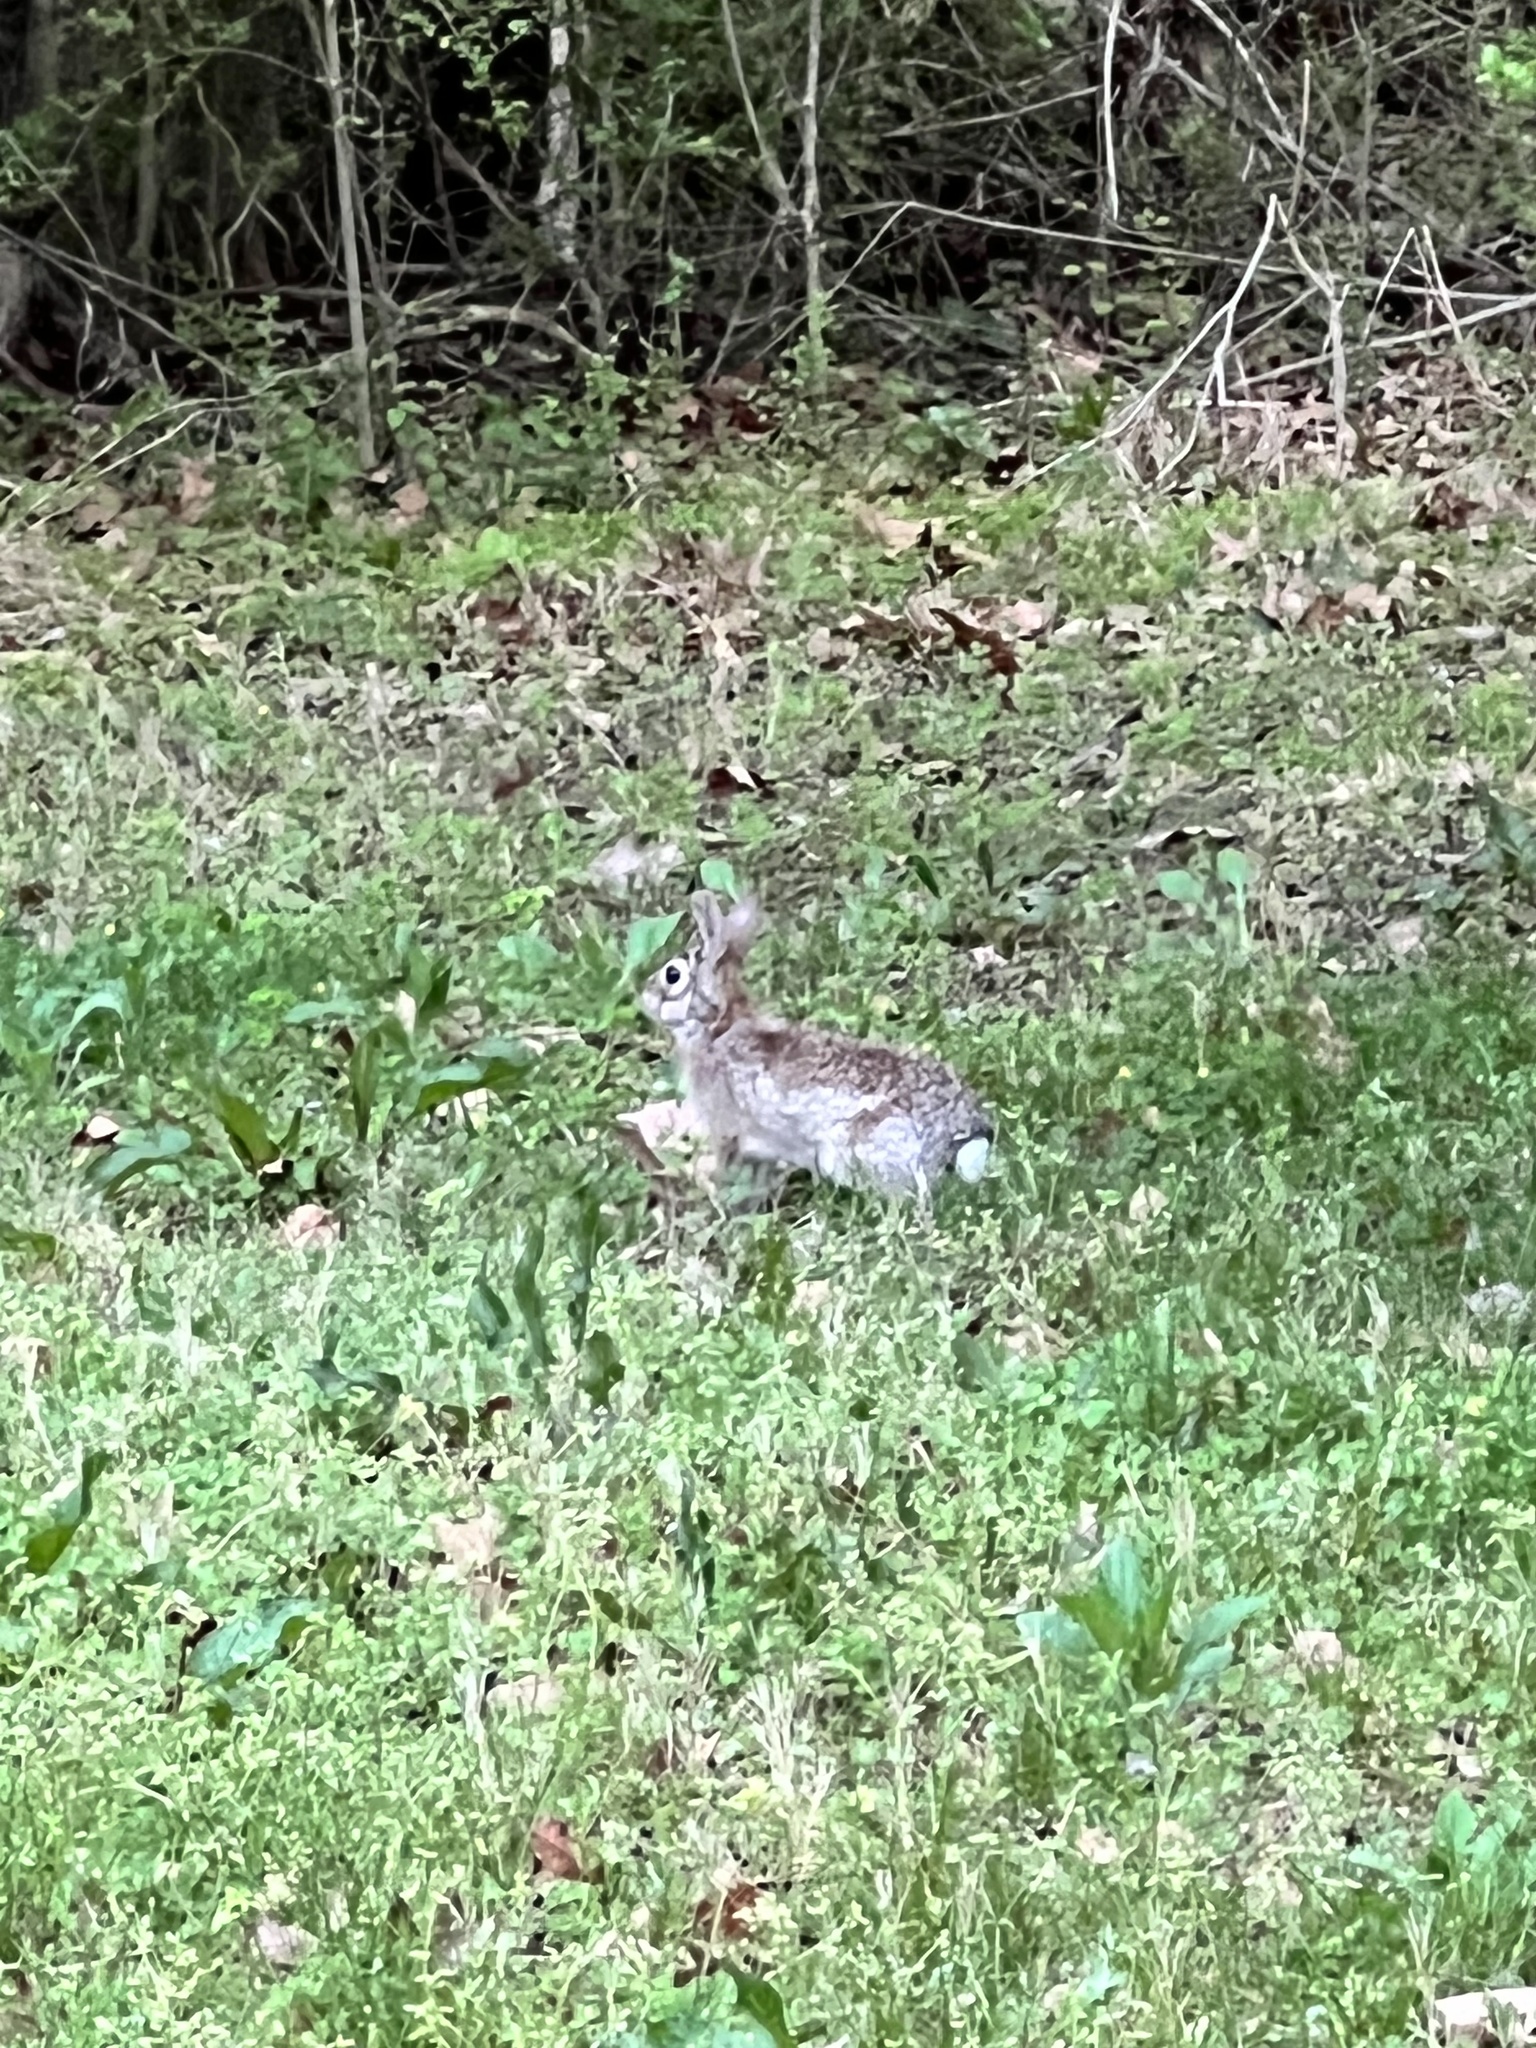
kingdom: Animalia
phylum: Chordata
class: Mammalia
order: Lagomorpha
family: Leporidae
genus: Sylvilagus
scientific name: Sylvilagus floridanus
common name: Eastern cottontail
